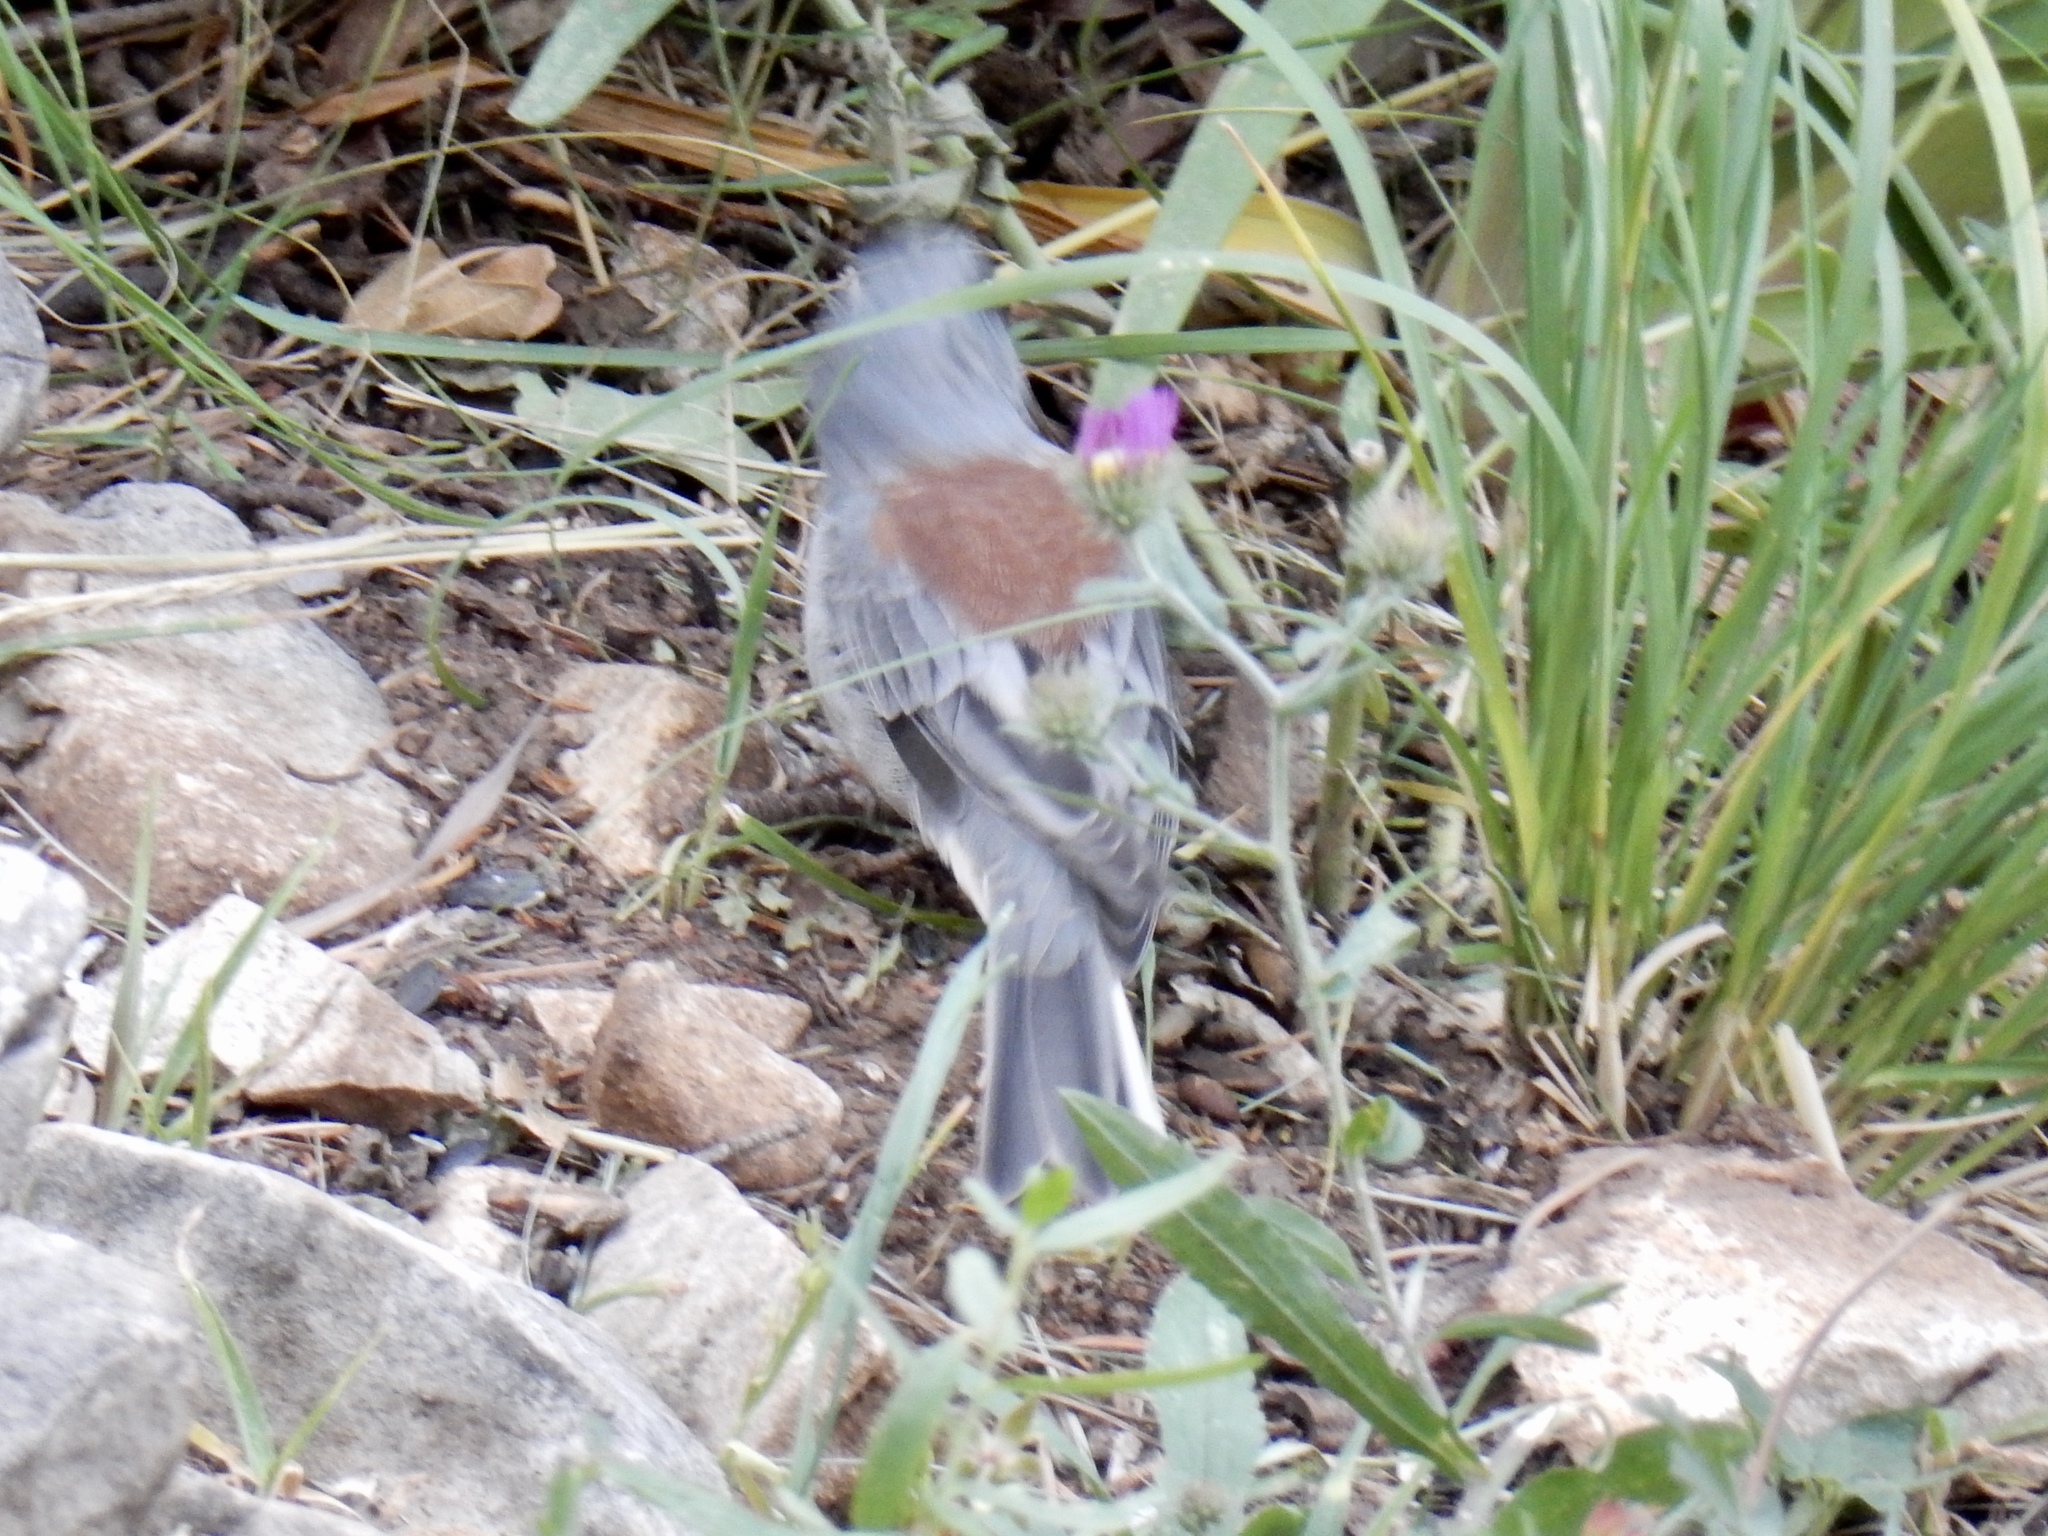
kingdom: Animalia
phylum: Chordata
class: Aves
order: Passeriformes
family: Passerellidae
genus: Junco
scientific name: Junco hyemalis
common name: Dark-eyed junco
